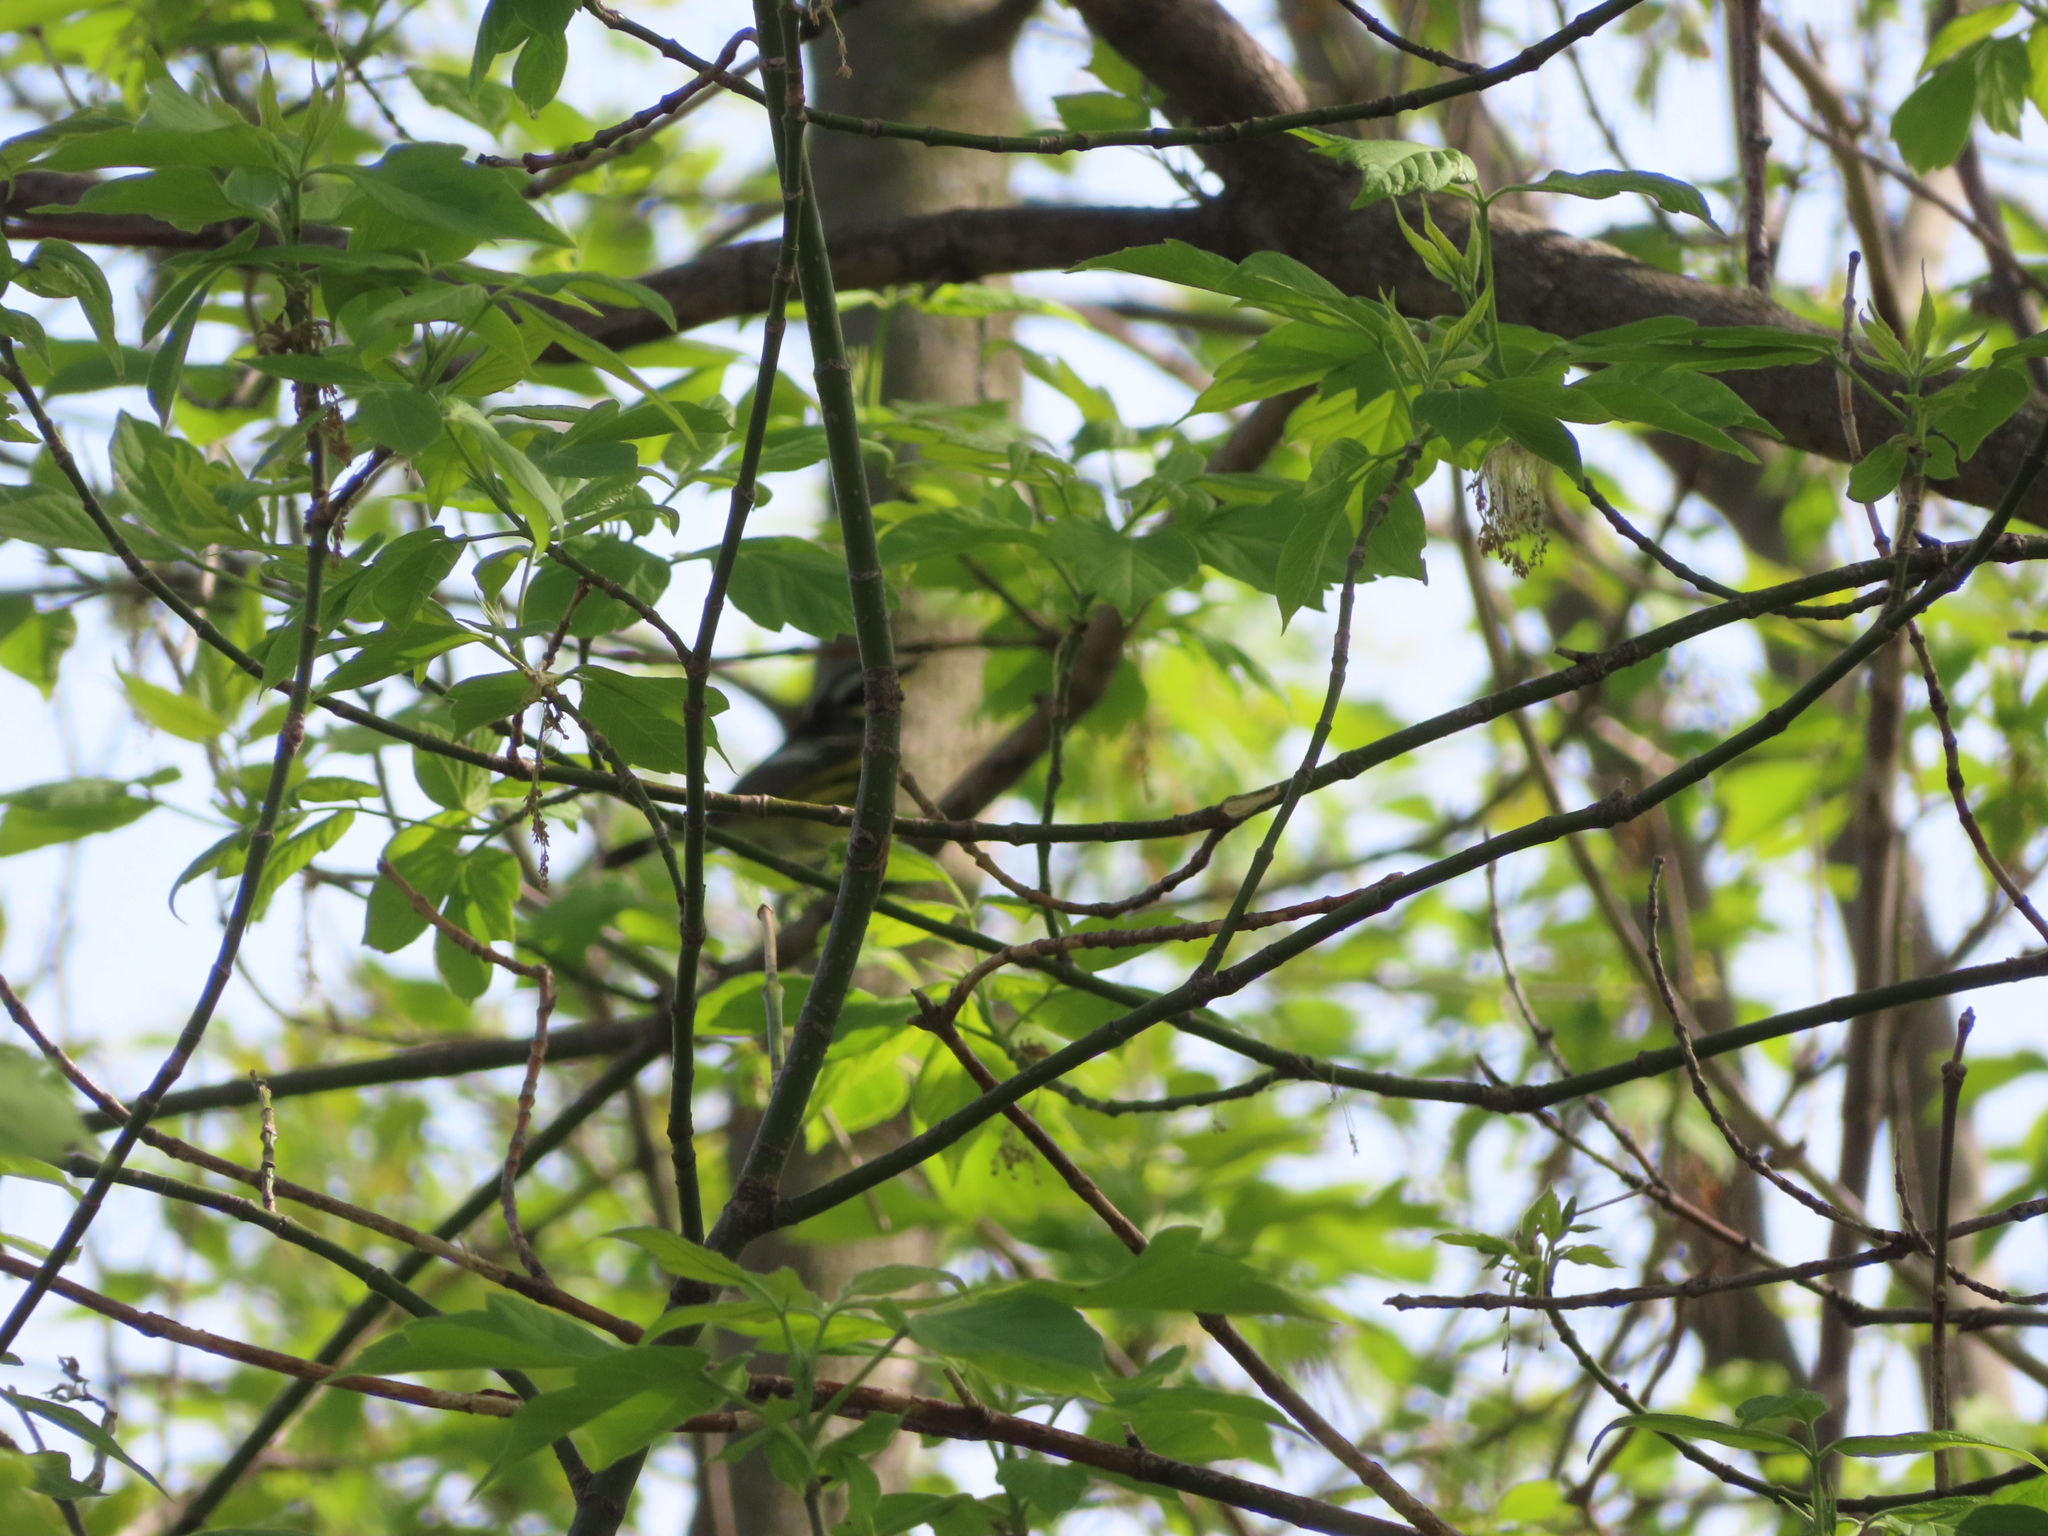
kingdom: Animalia
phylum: Chordata
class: Aves
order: Passeriformes
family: Parulidae
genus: Setophaga
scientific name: Setophaga magnolia
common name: Magnolia warbler
